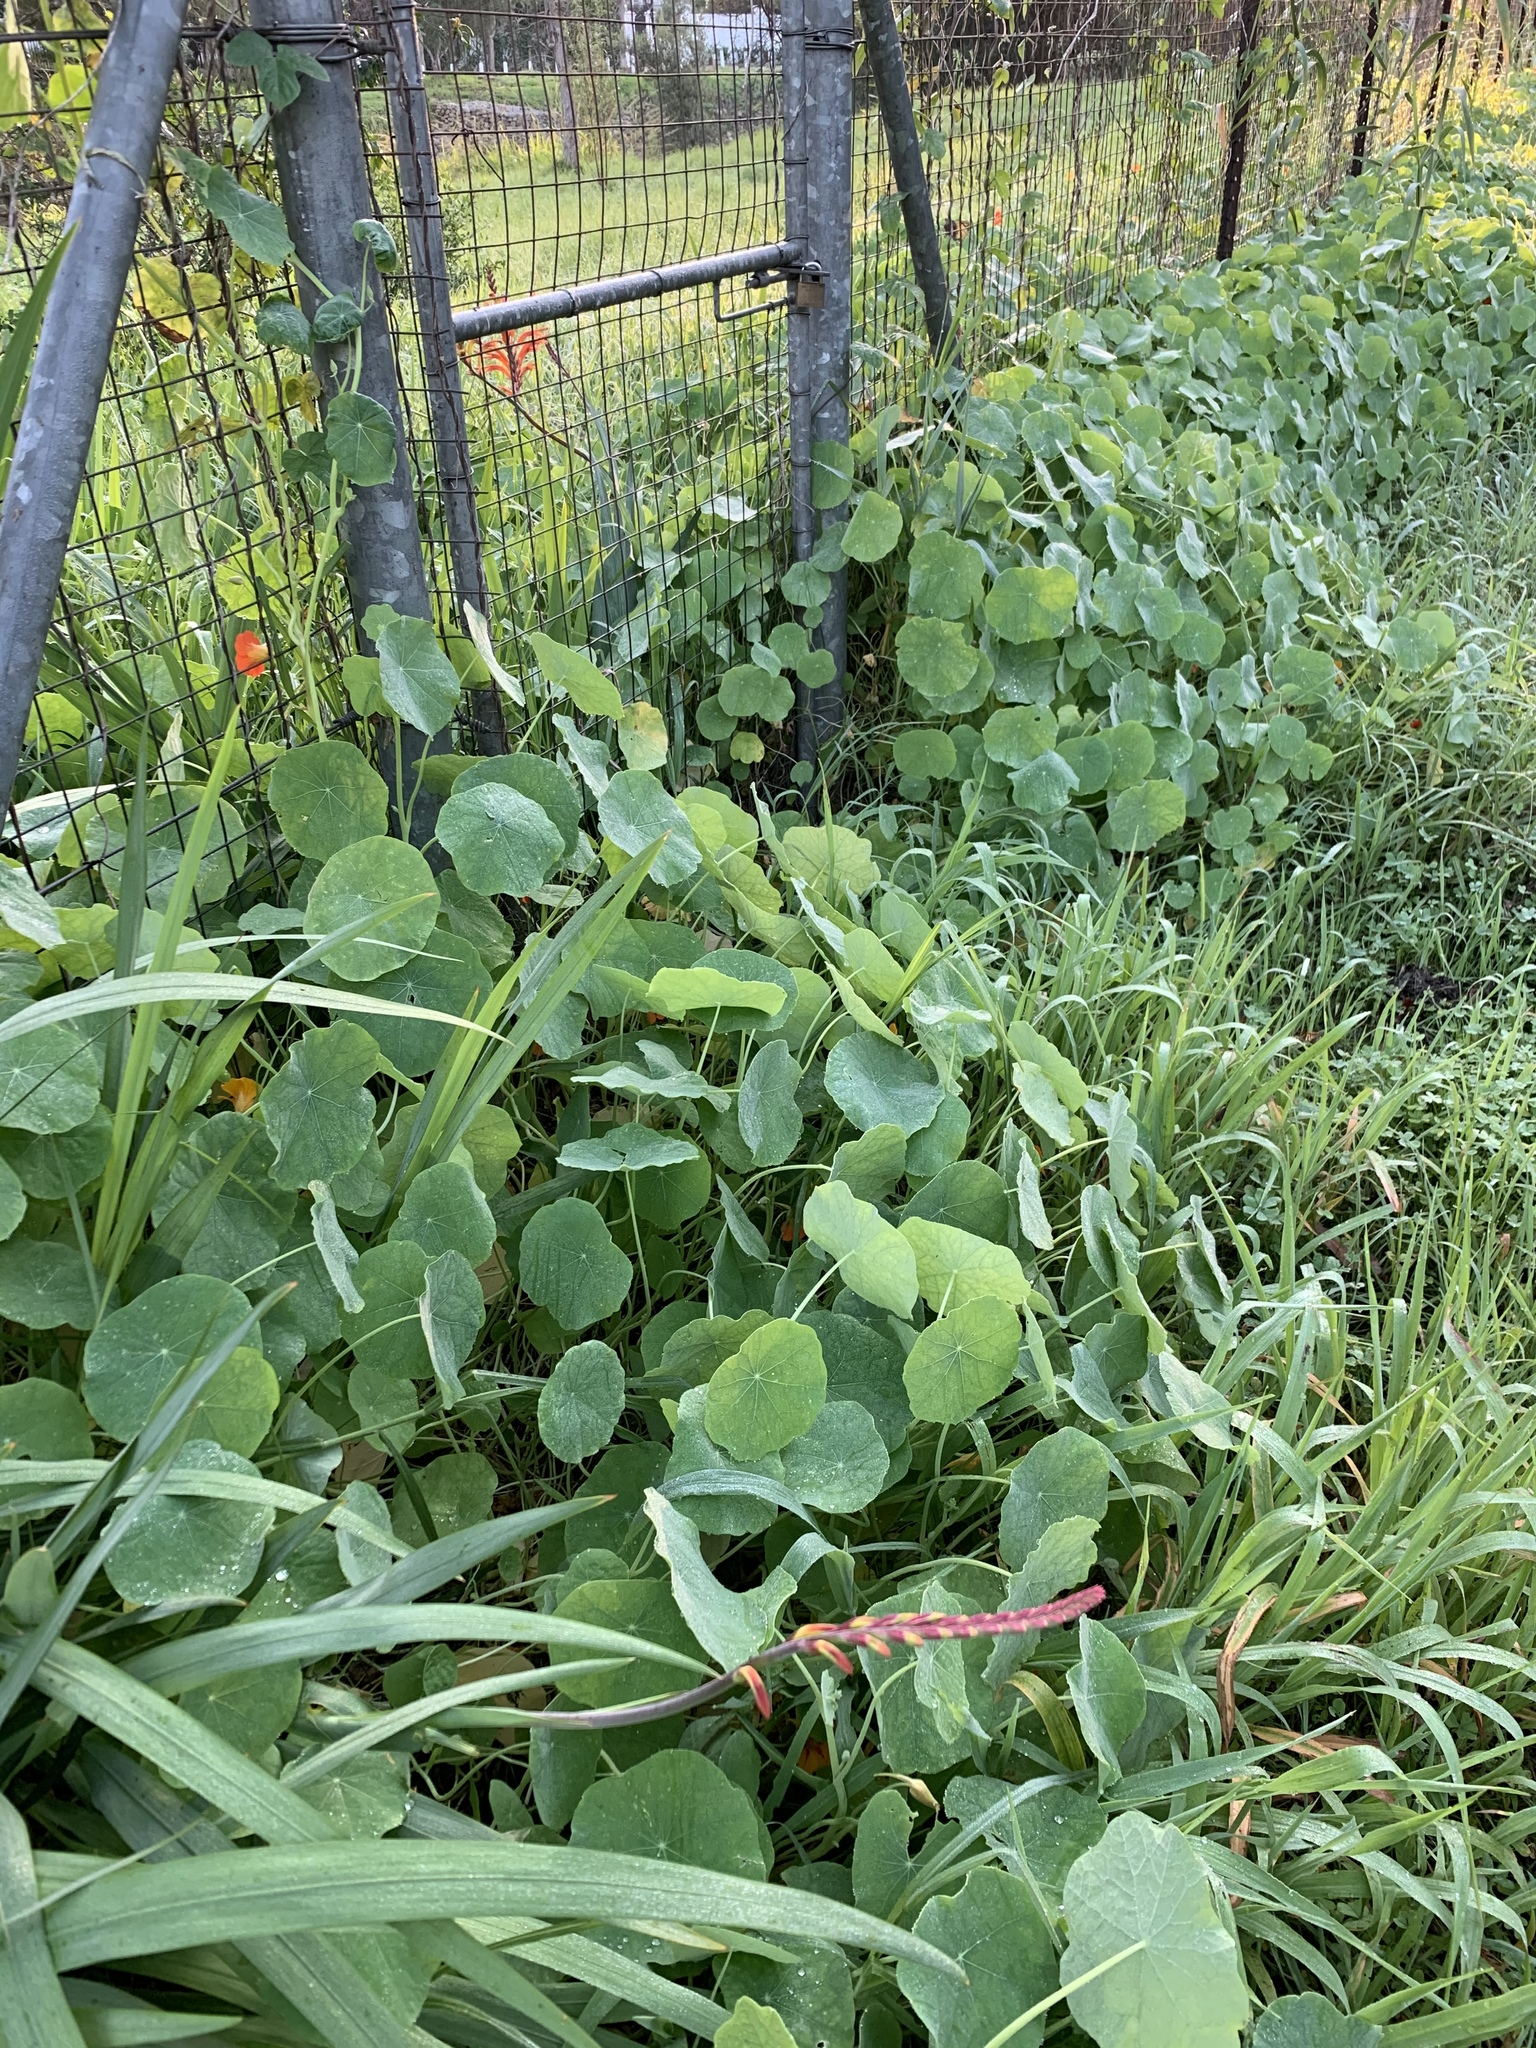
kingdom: Plantae
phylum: Tracheophyta
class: Magnoliopsida
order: Brassicales
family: Tropaeolaceae
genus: Tropaeolum
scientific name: Tropaeolum majus
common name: Nasturtium
